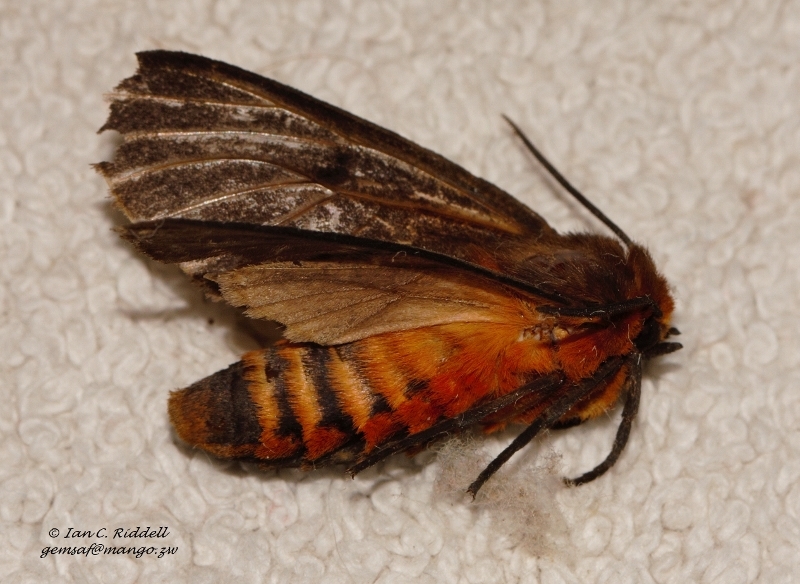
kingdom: Animalia
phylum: Arthropoda
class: Insecta
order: Lepidoptera
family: Erebidae
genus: Automolis
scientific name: Automolis rubripuncta
